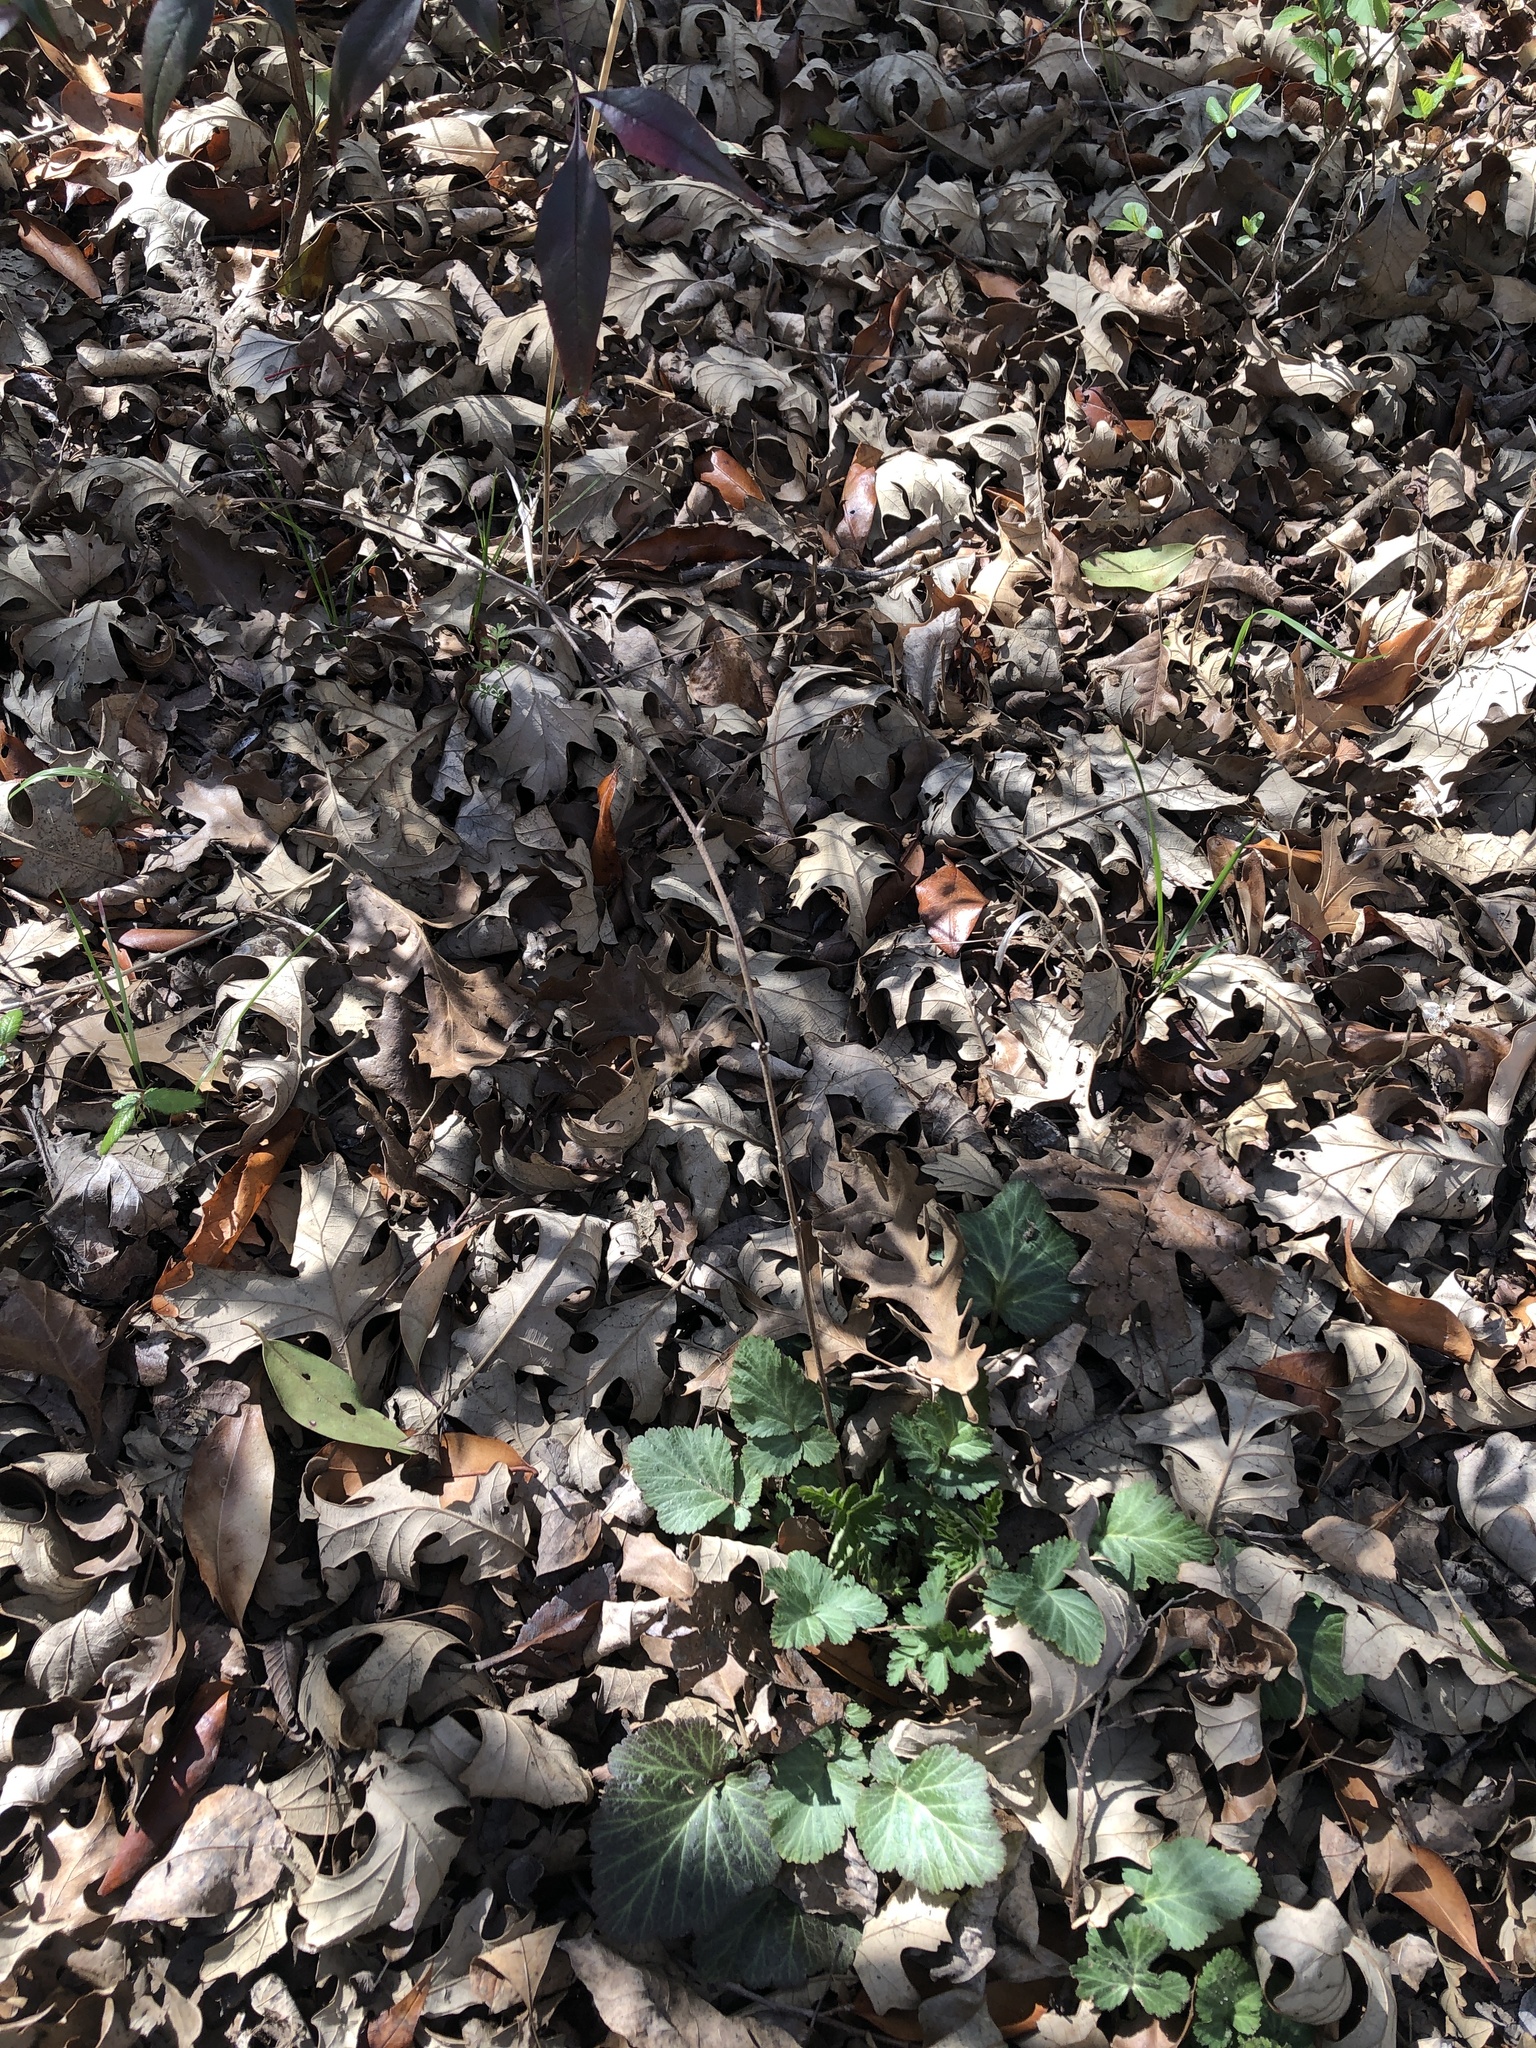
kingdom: Plantae
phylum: Tracheophyta
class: Magnoliopsida
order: Rosales
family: Rosaceae
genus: Geum
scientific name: Geum canadense
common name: White avens
